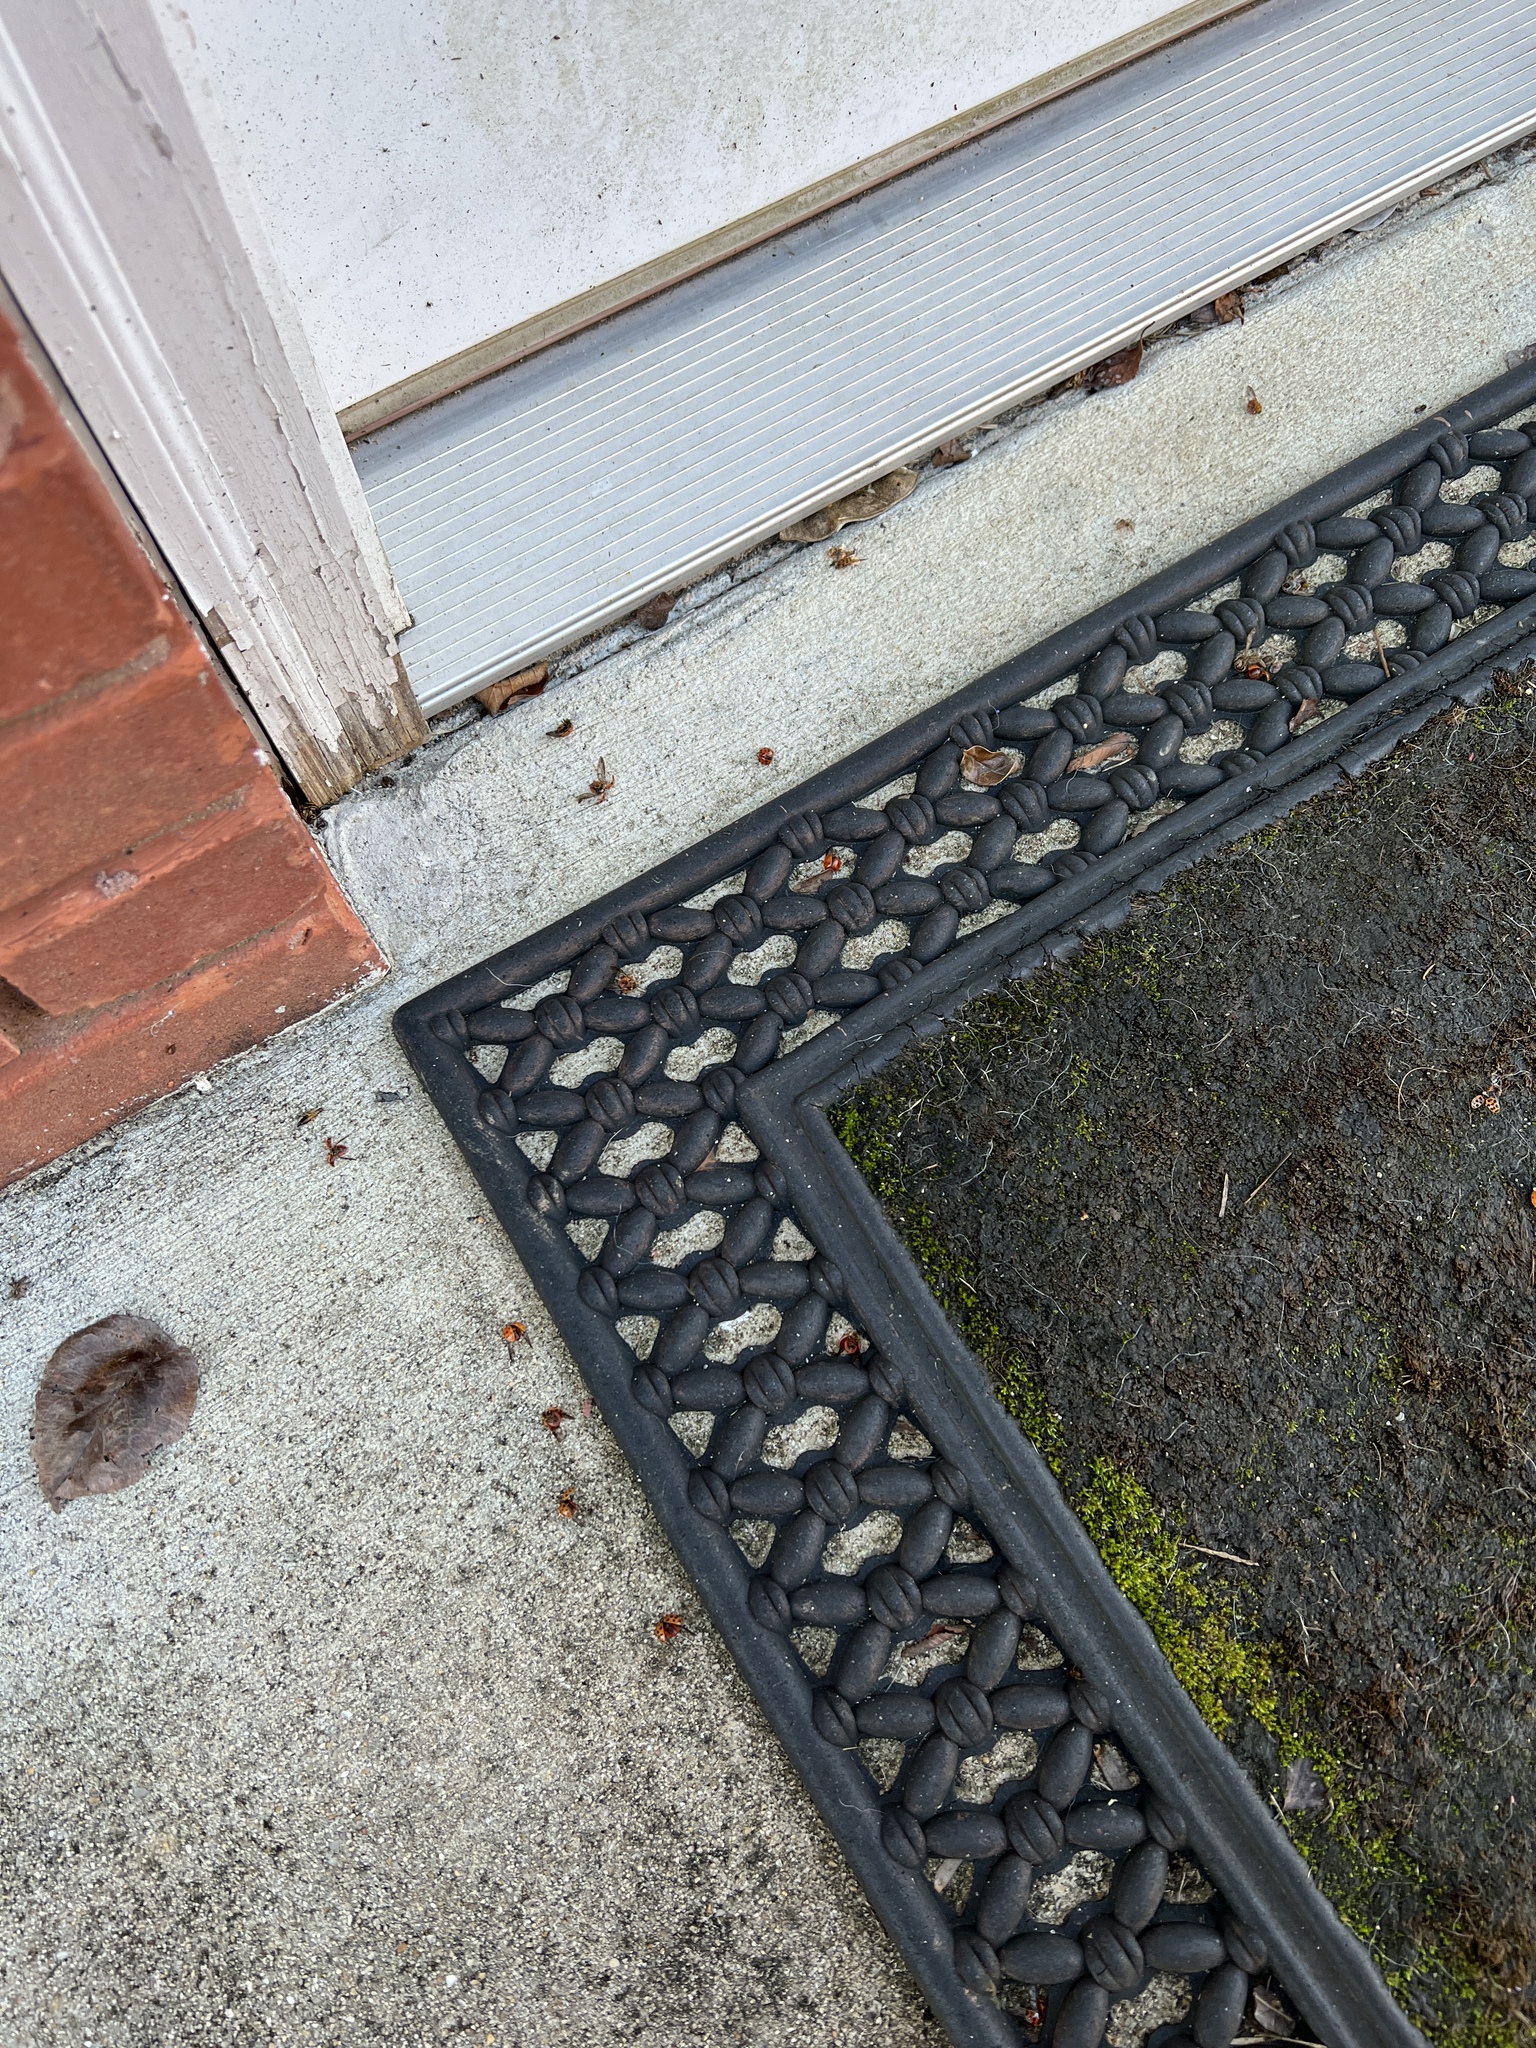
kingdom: Animalia
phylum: Arthropoda
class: Insecta
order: Coleoptera
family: Coccinellidae
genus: Harmonia
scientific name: Harmonia axyridis
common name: Harlequin ladybird
